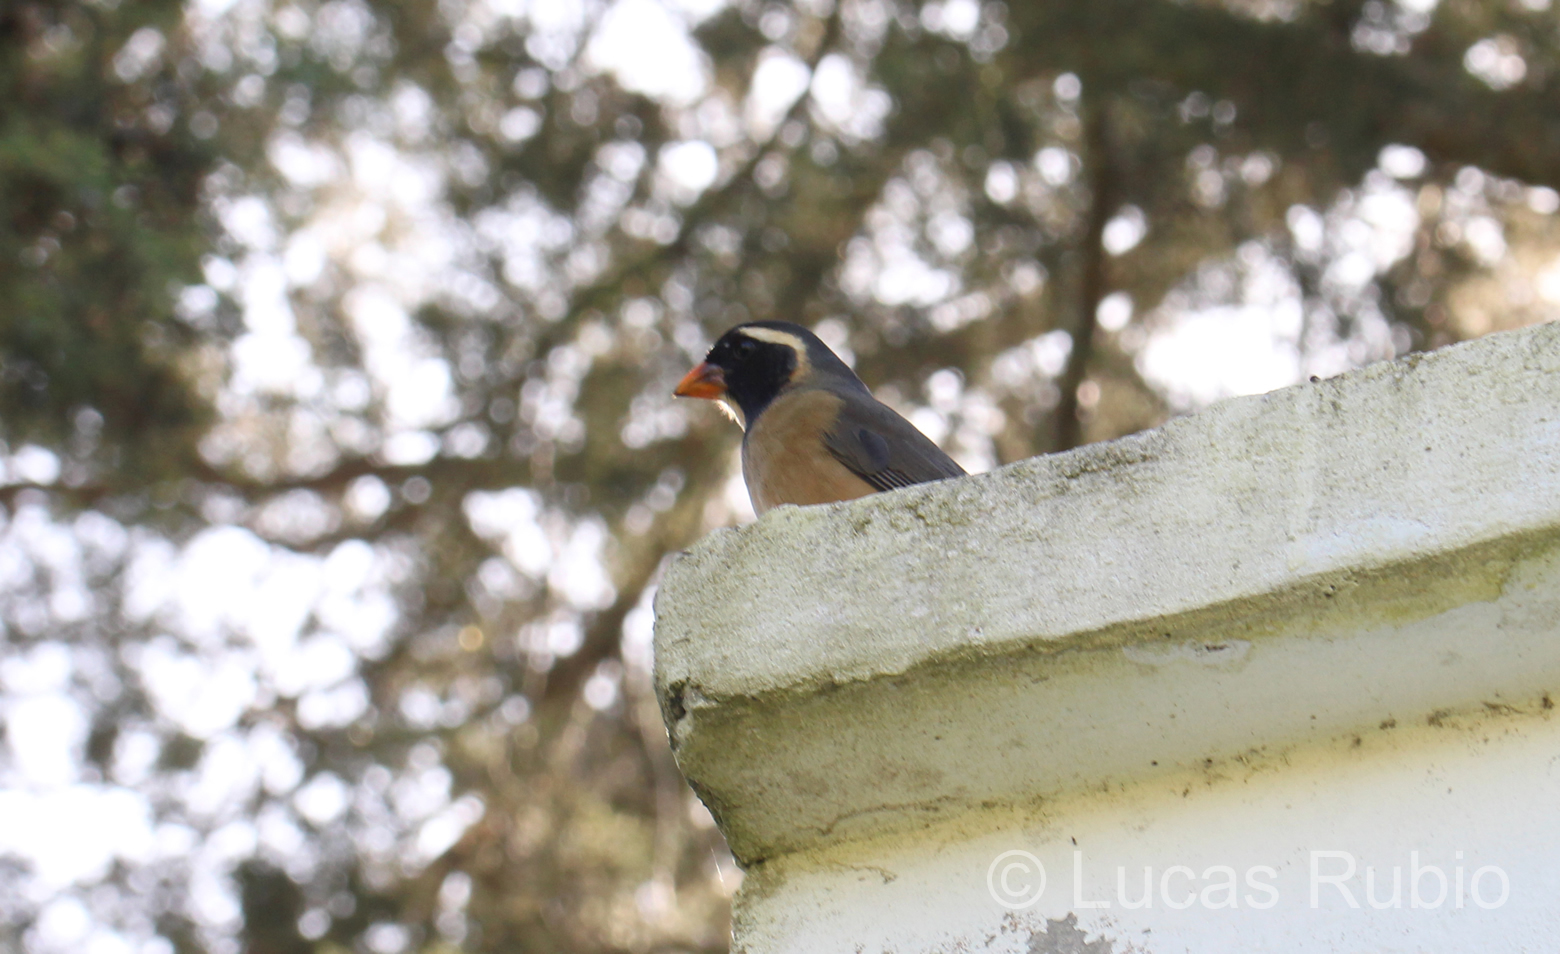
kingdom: Animalia
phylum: Chordata
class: Aves
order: Passeriformes
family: Thraupidae
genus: Saltator
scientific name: Saltator aurantiirostris
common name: Golden-billed saltator
